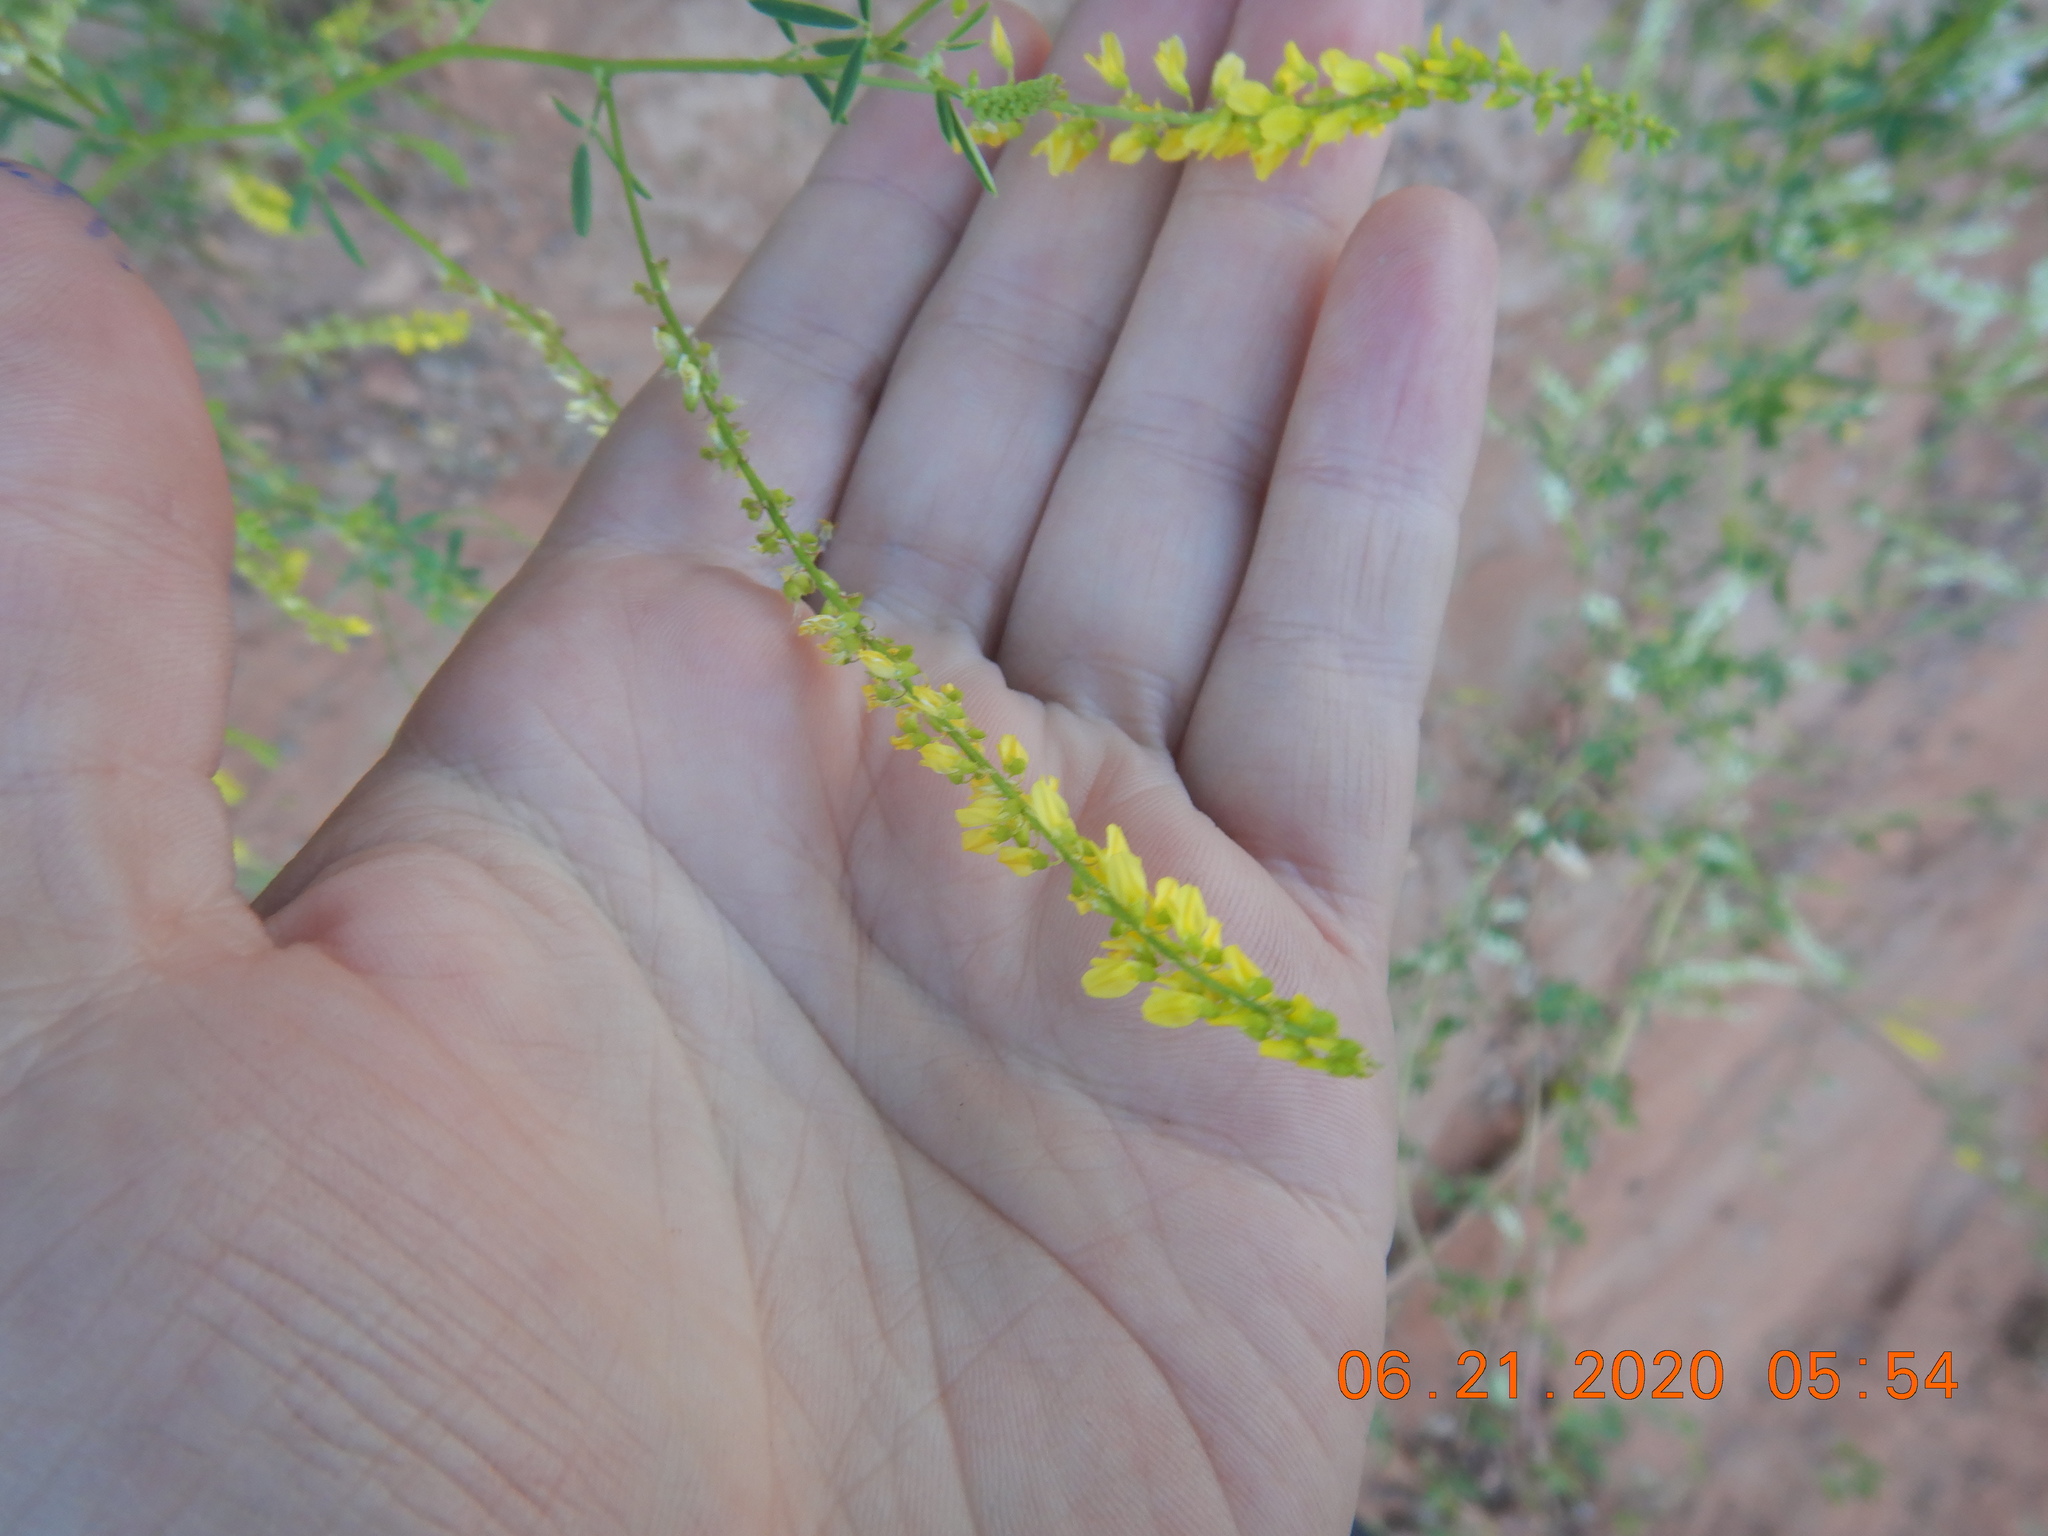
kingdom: Plantae
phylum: Tracheophyta
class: Magnoliopsida
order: Fabales
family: Fabaceae
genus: Melilotus
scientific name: Melilotus officinalis
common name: Sweetclover
